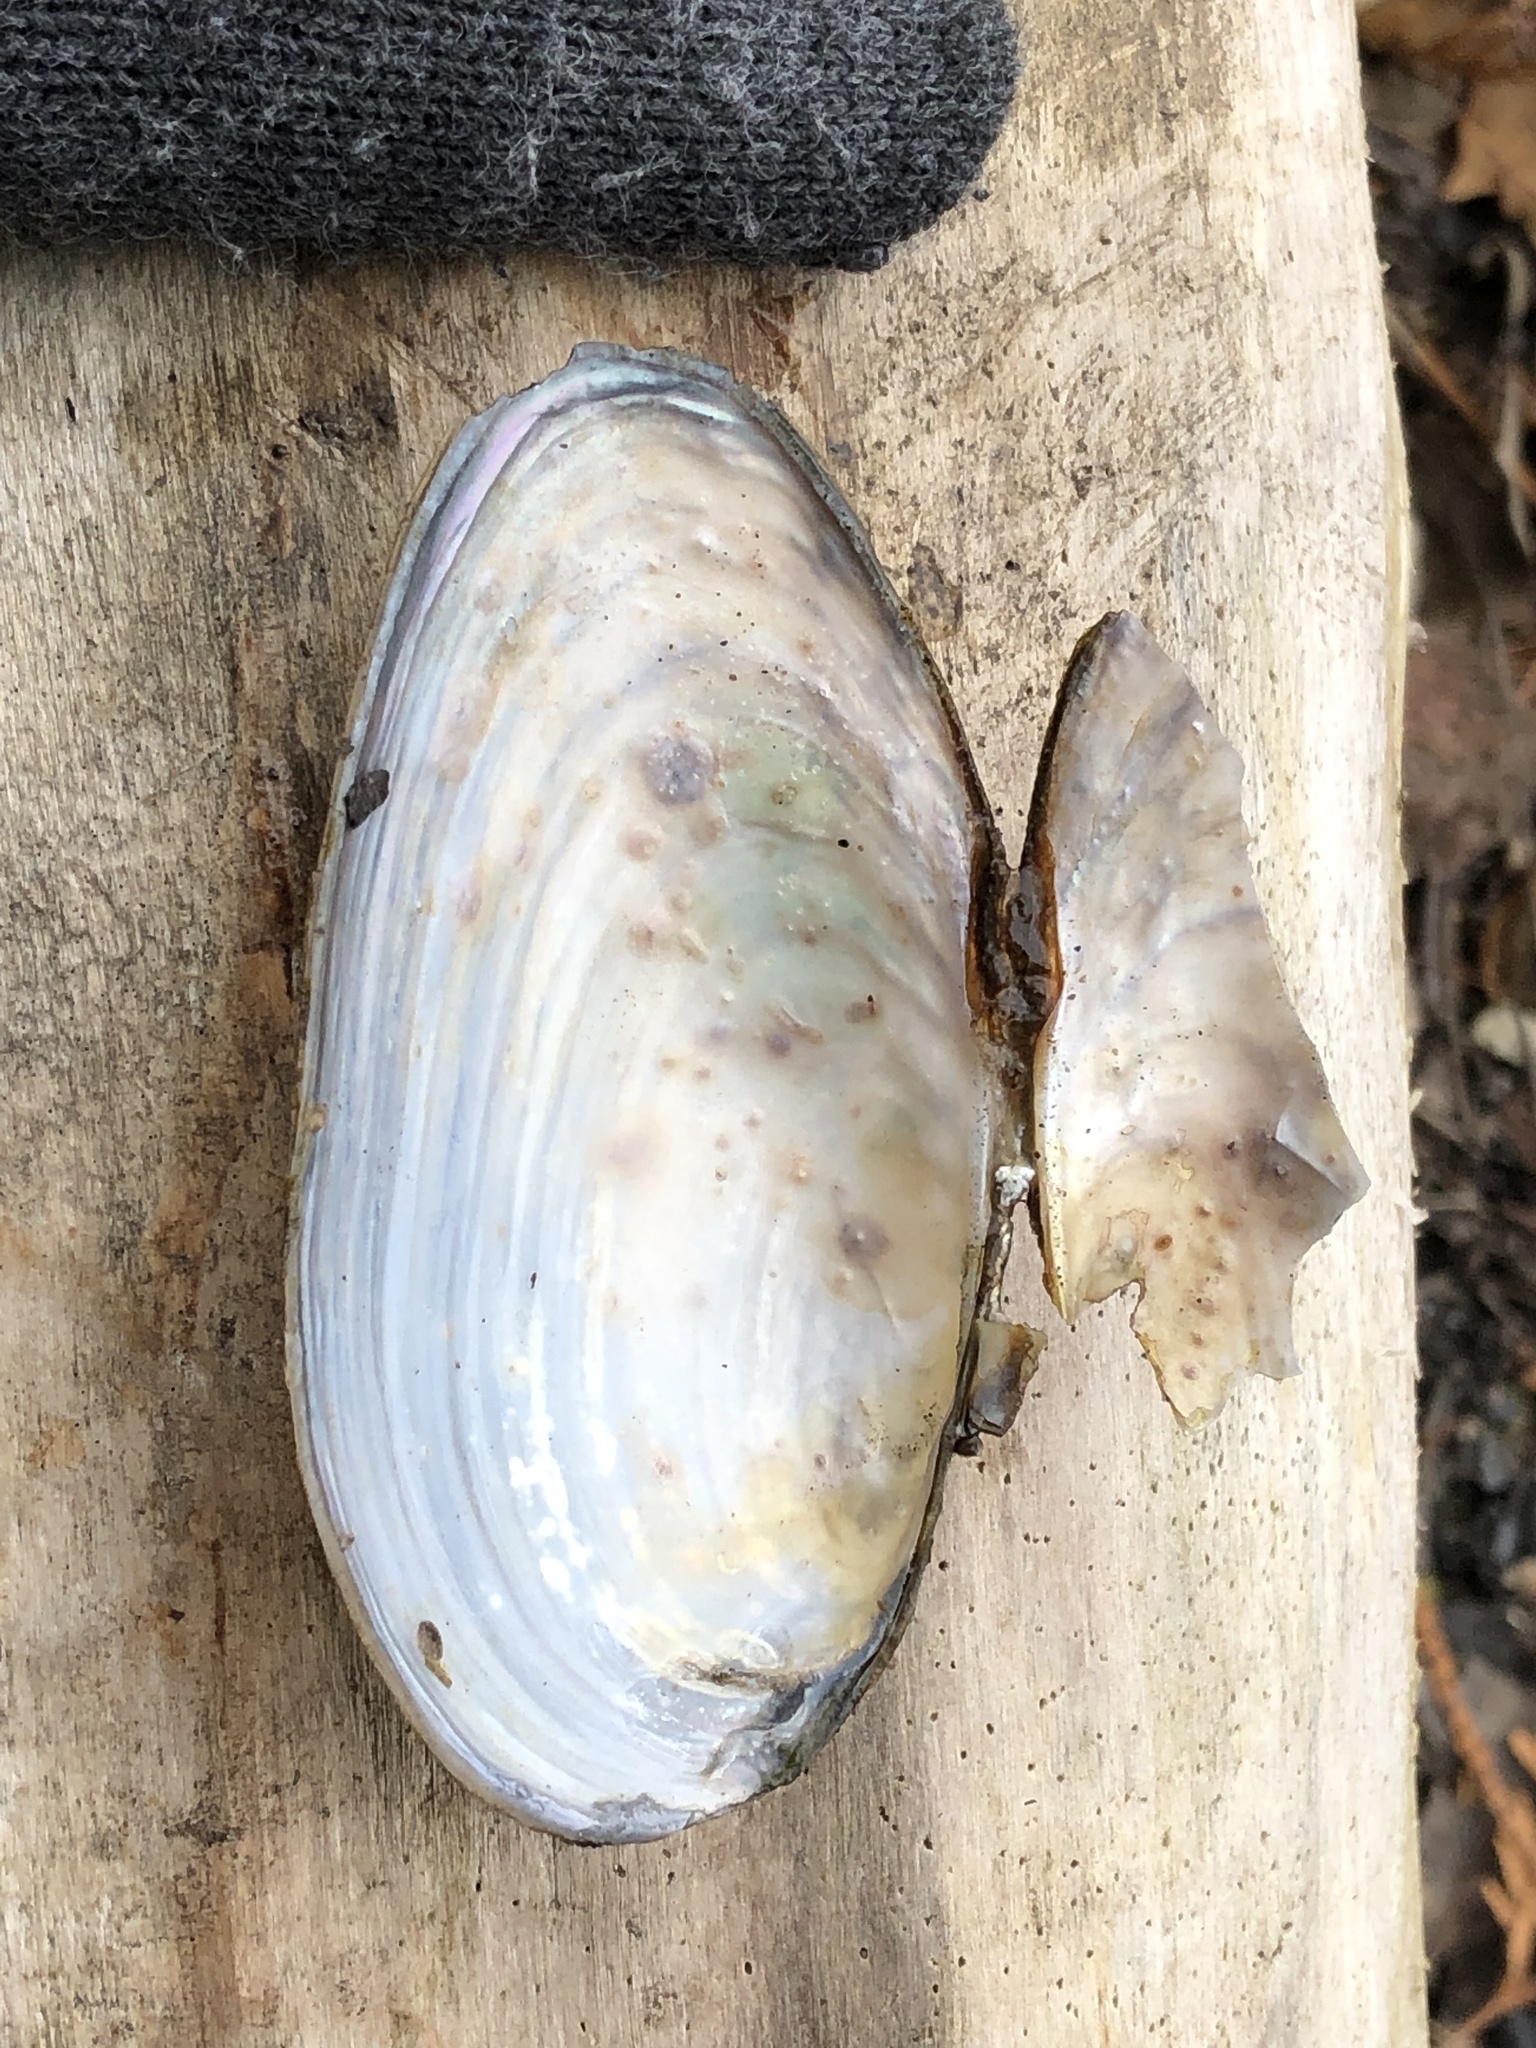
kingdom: Animalia
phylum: Mollusca
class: Bivalvia
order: Unionida
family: Unionidae
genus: Anodontoides
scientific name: Anodontoides ferussacianus
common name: Cylindrical papershell
